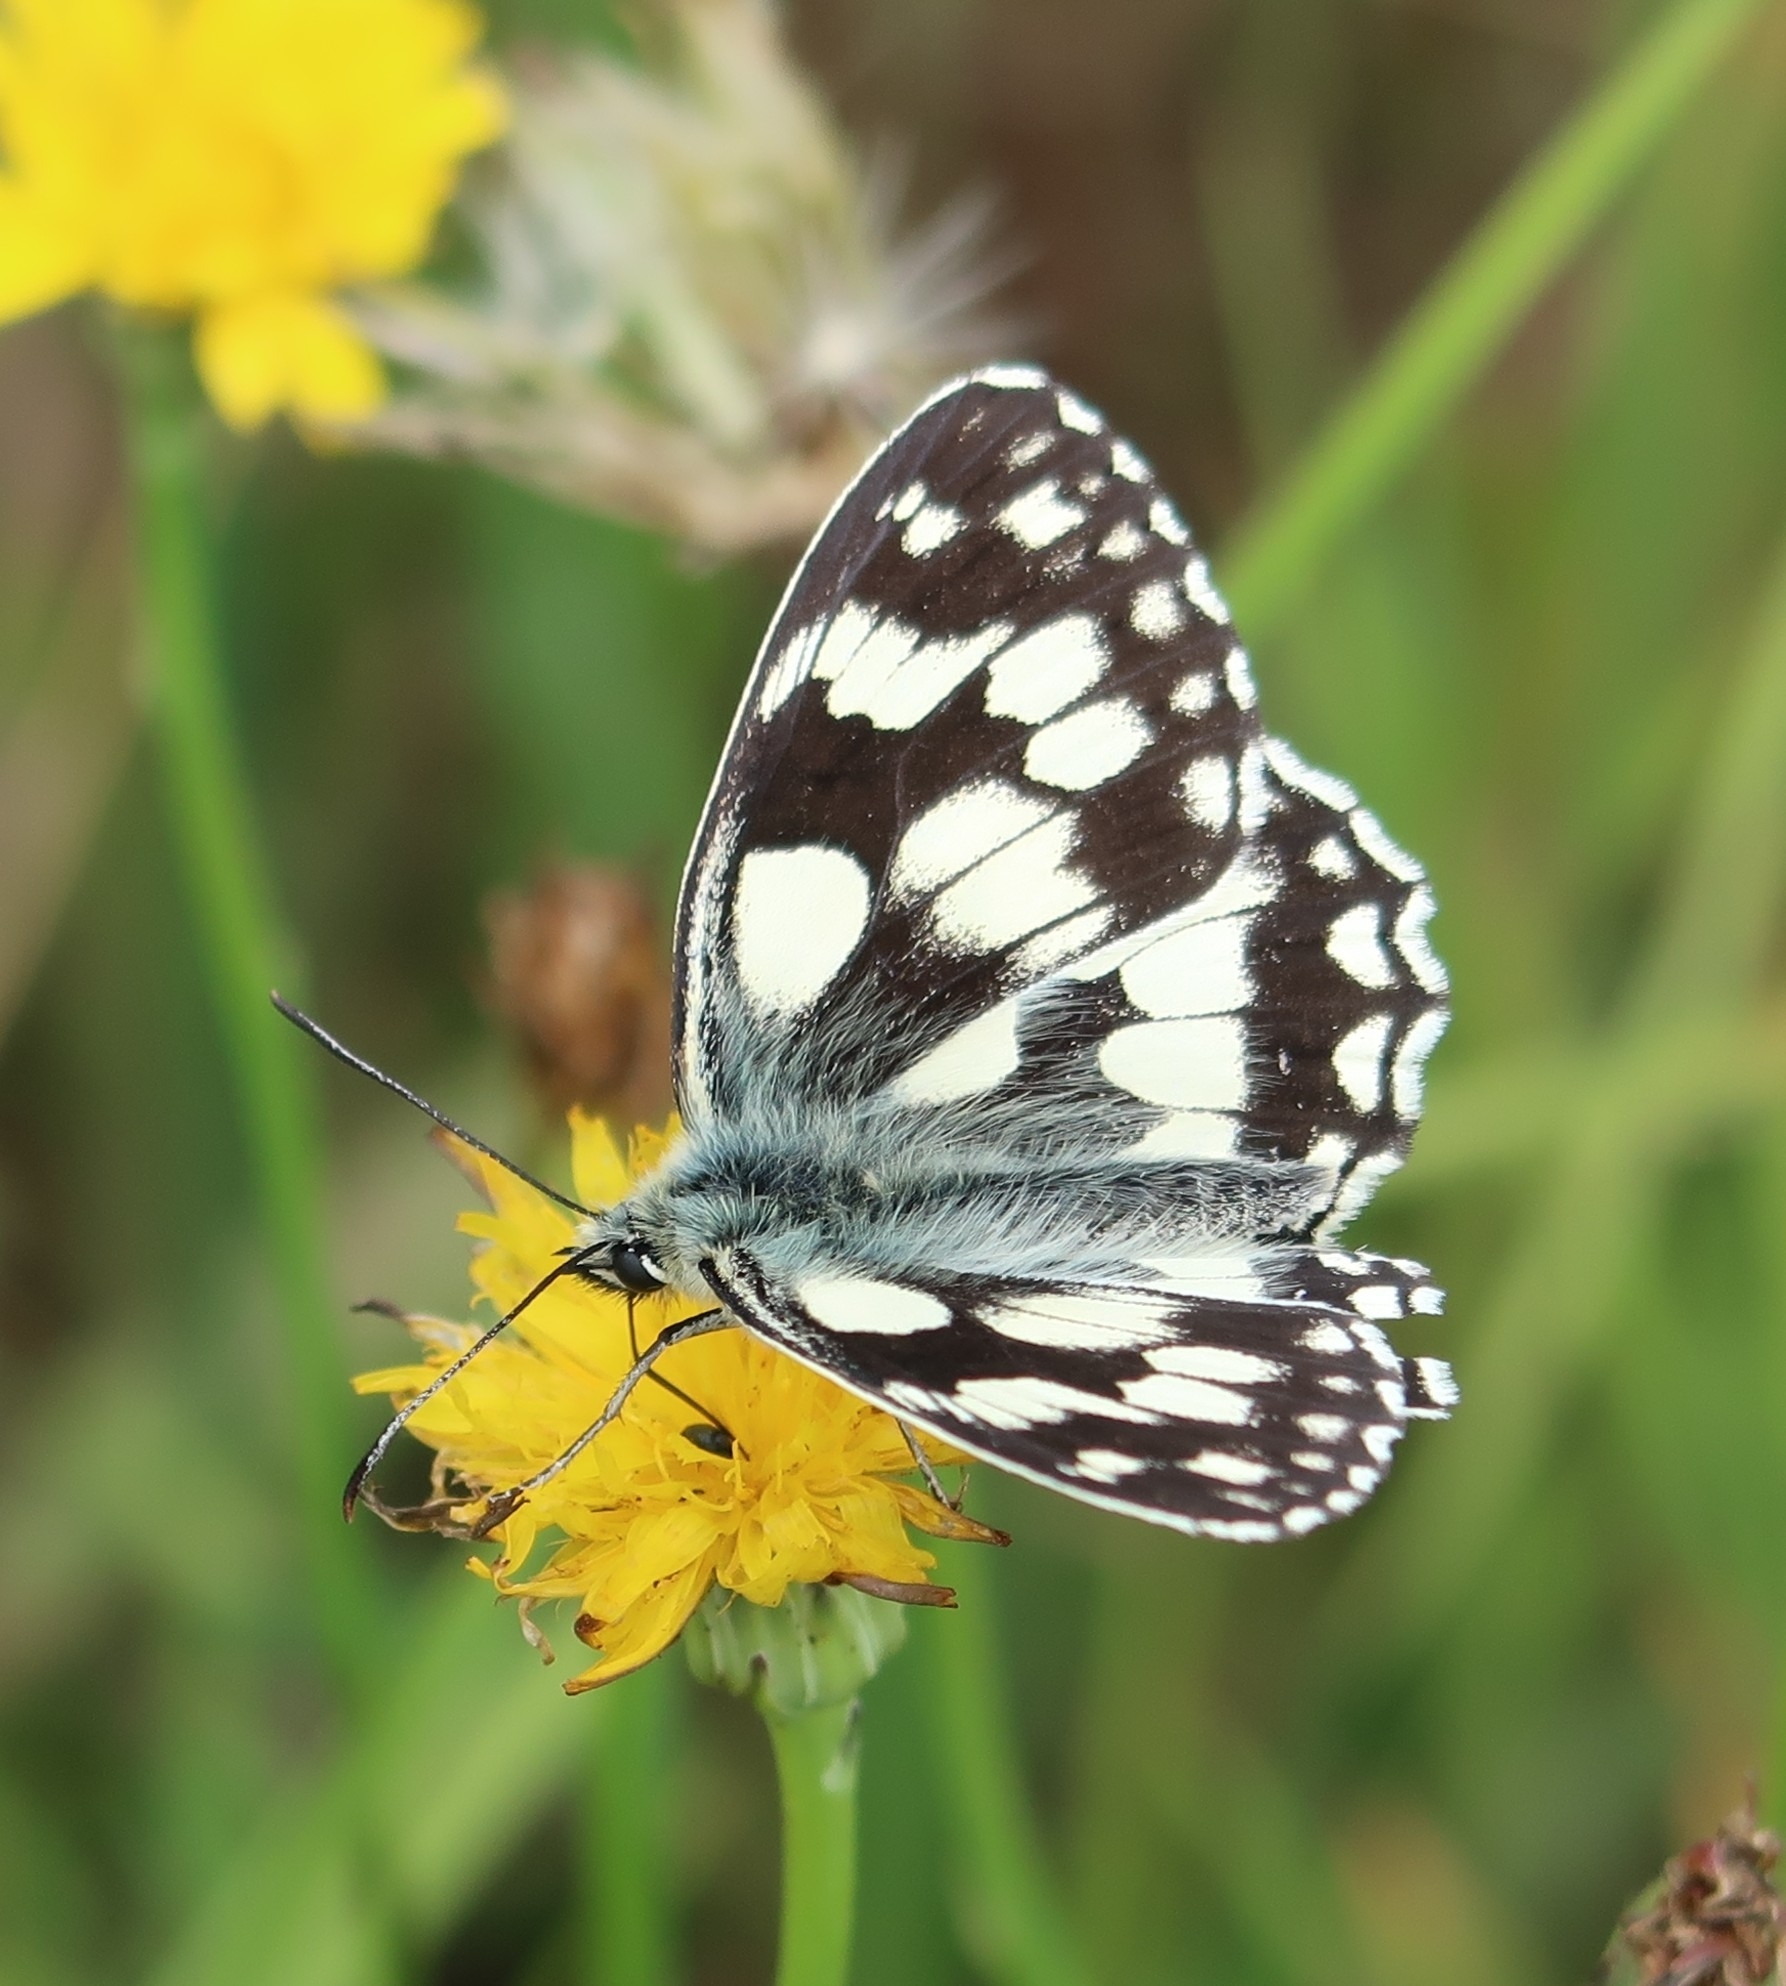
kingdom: Animalia
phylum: Arthropoda
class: Insecta
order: Lepidoptera
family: Nymphalidae
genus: Melanargia
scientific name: Melanargia galathea
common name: Marbled white
